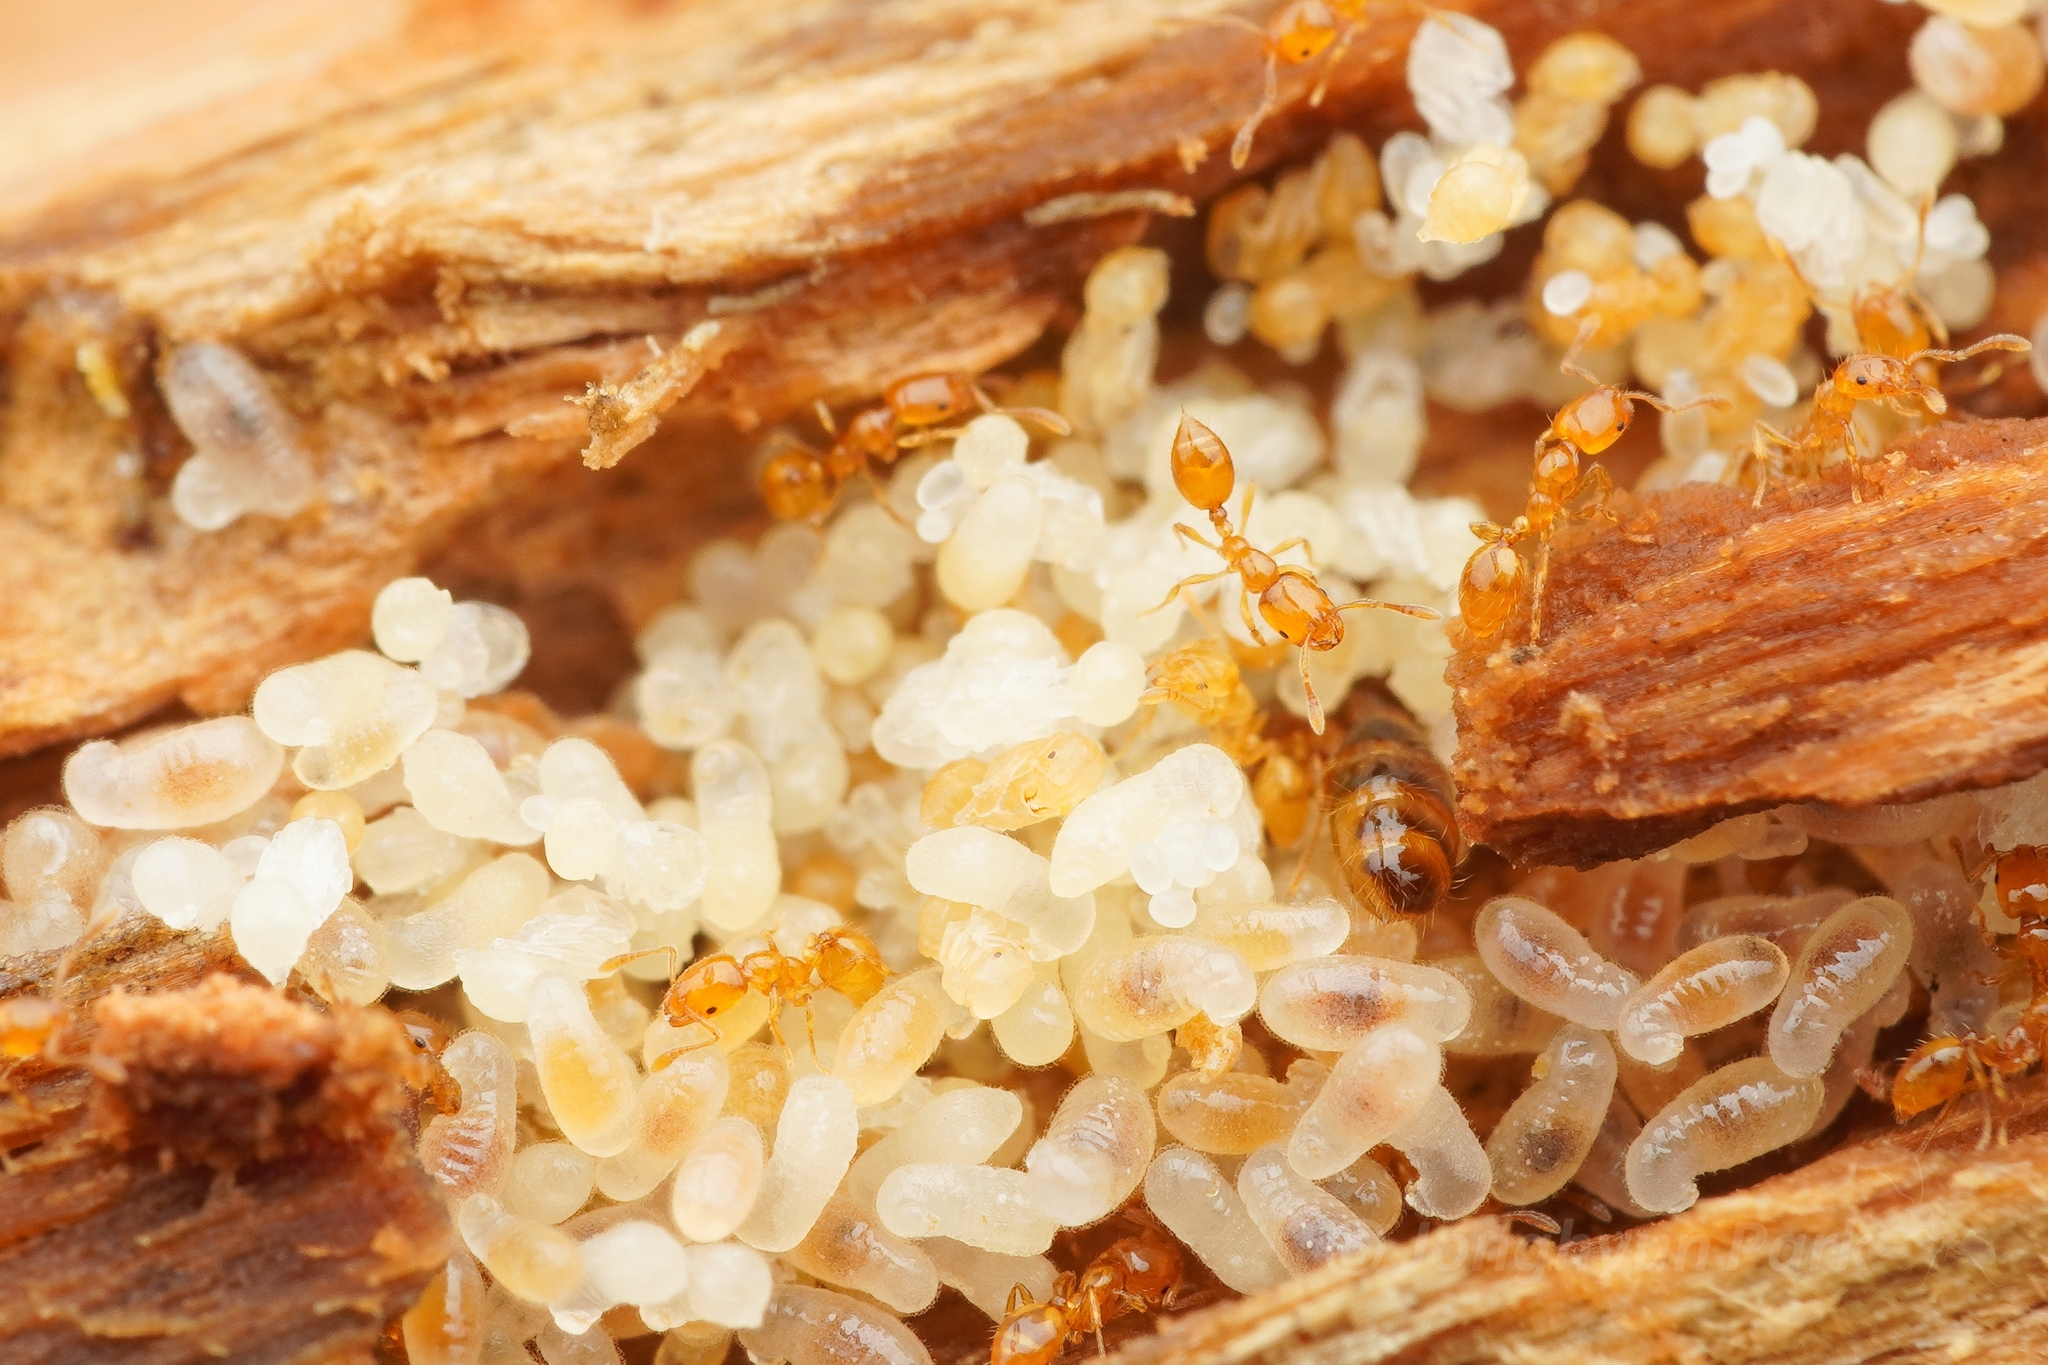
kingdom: Animalia
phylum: Arthropoda
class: Insecta
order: Hymenoptera
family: Formicidae
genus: Monomorium
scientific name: Monomorium triviale
